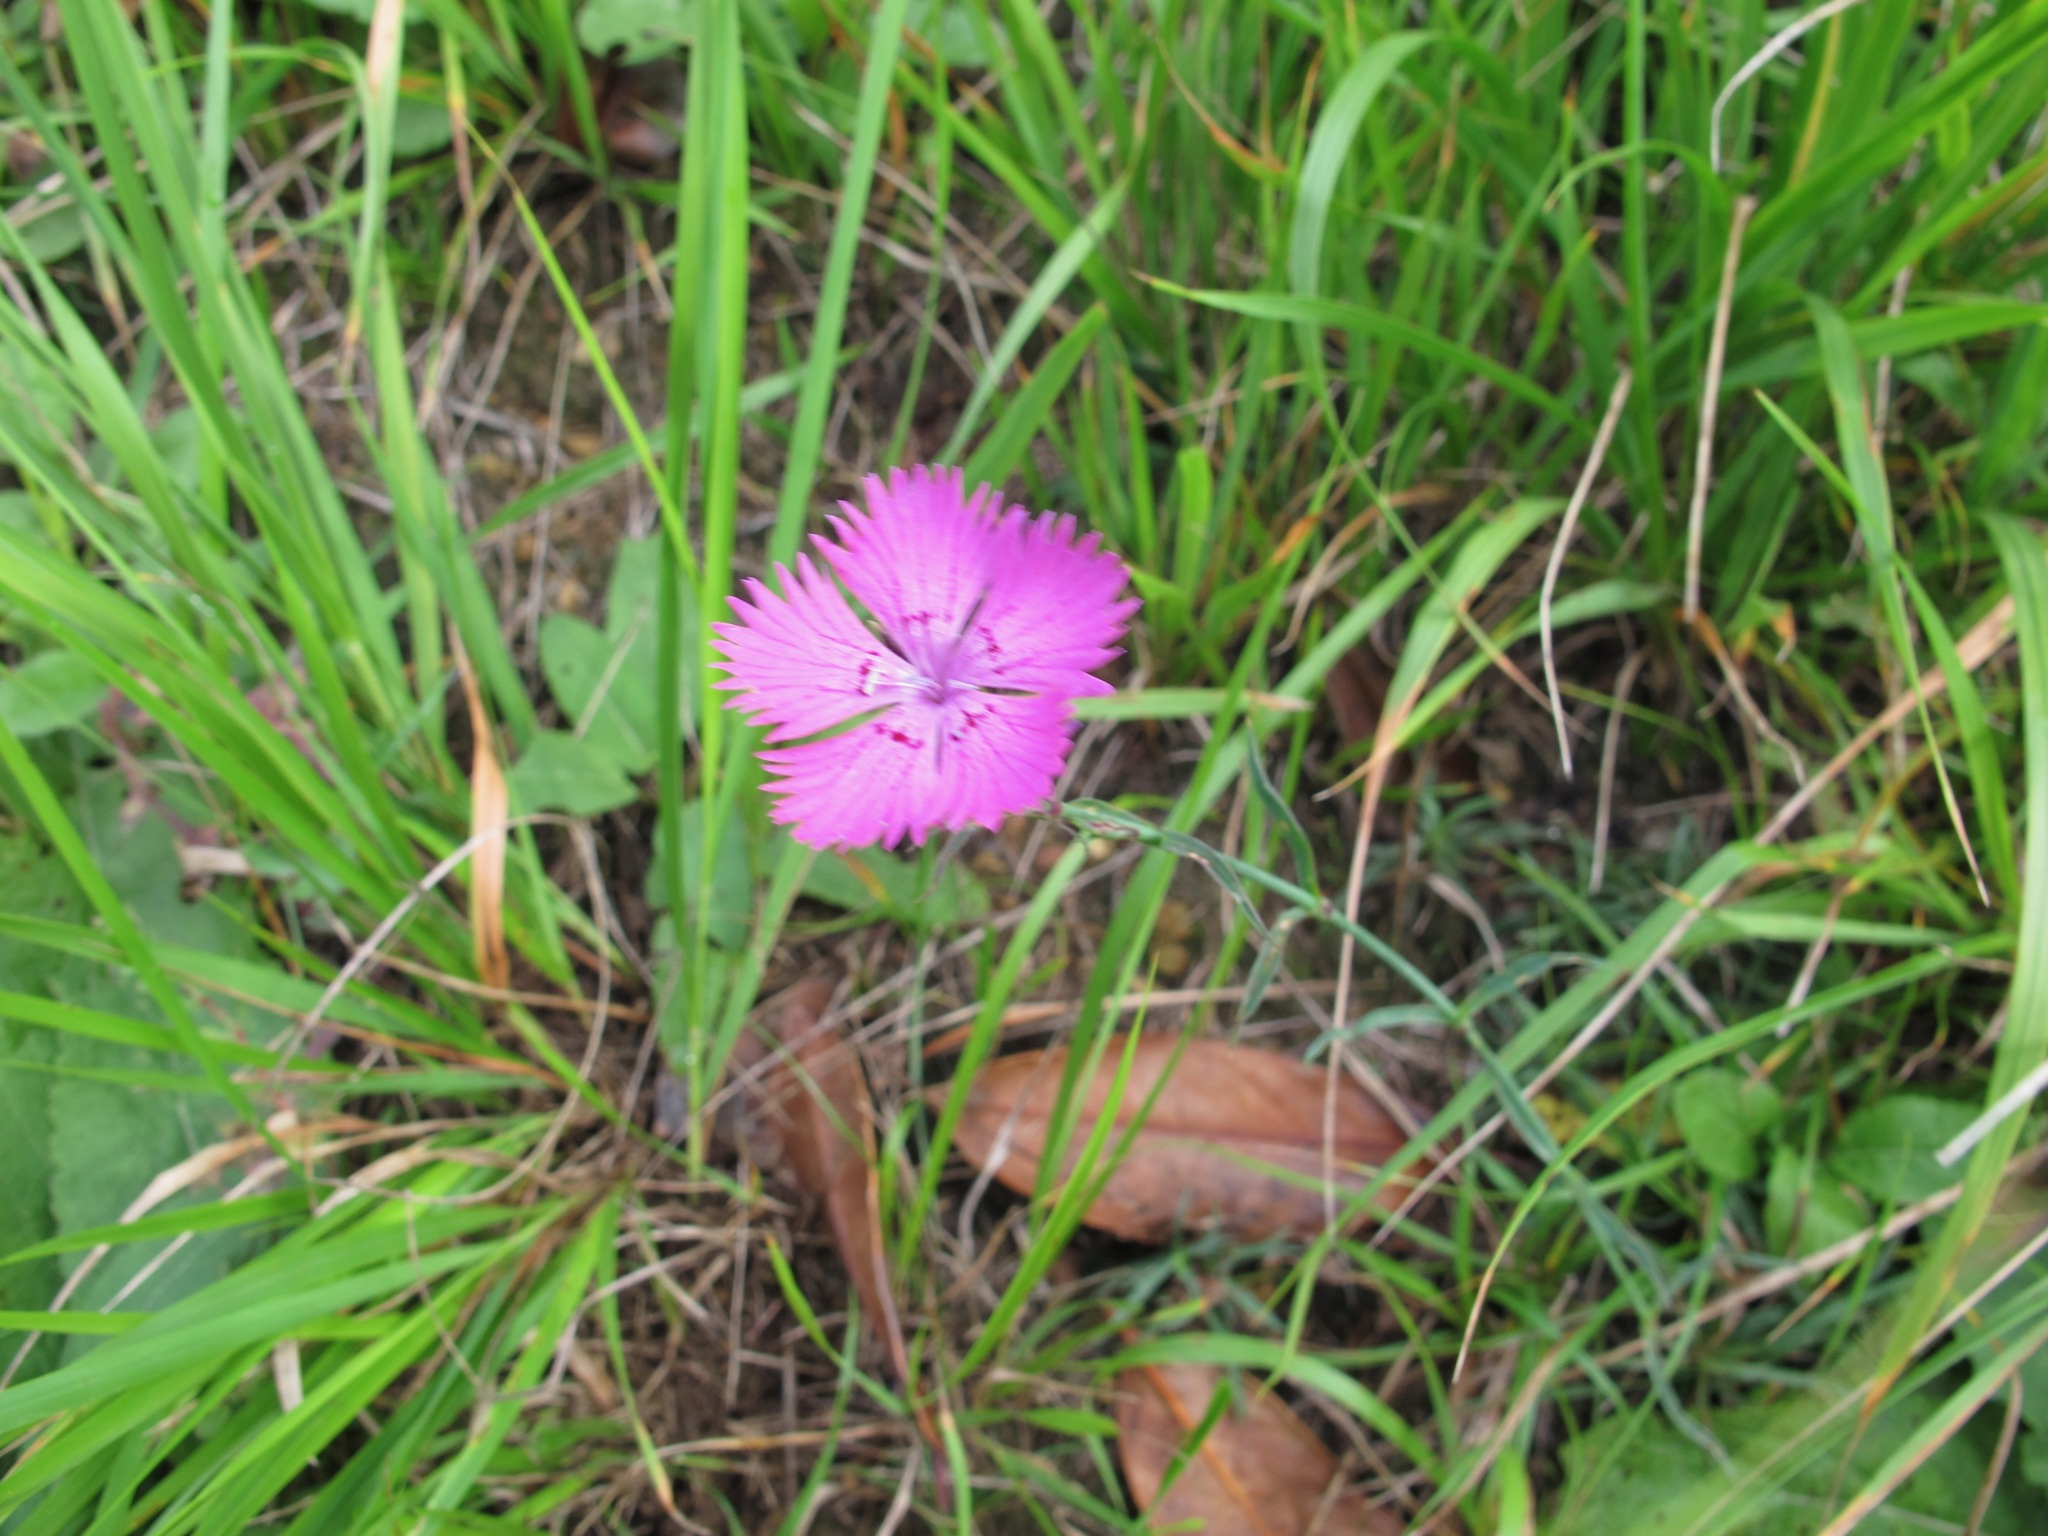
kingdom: Plantae
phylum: Tracheophyta
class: Magnoliopsida
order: Caryophyllales
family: Caryophyllaceae
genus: Dianthus
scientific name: Dianthus seguieri
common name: Ragged pink
